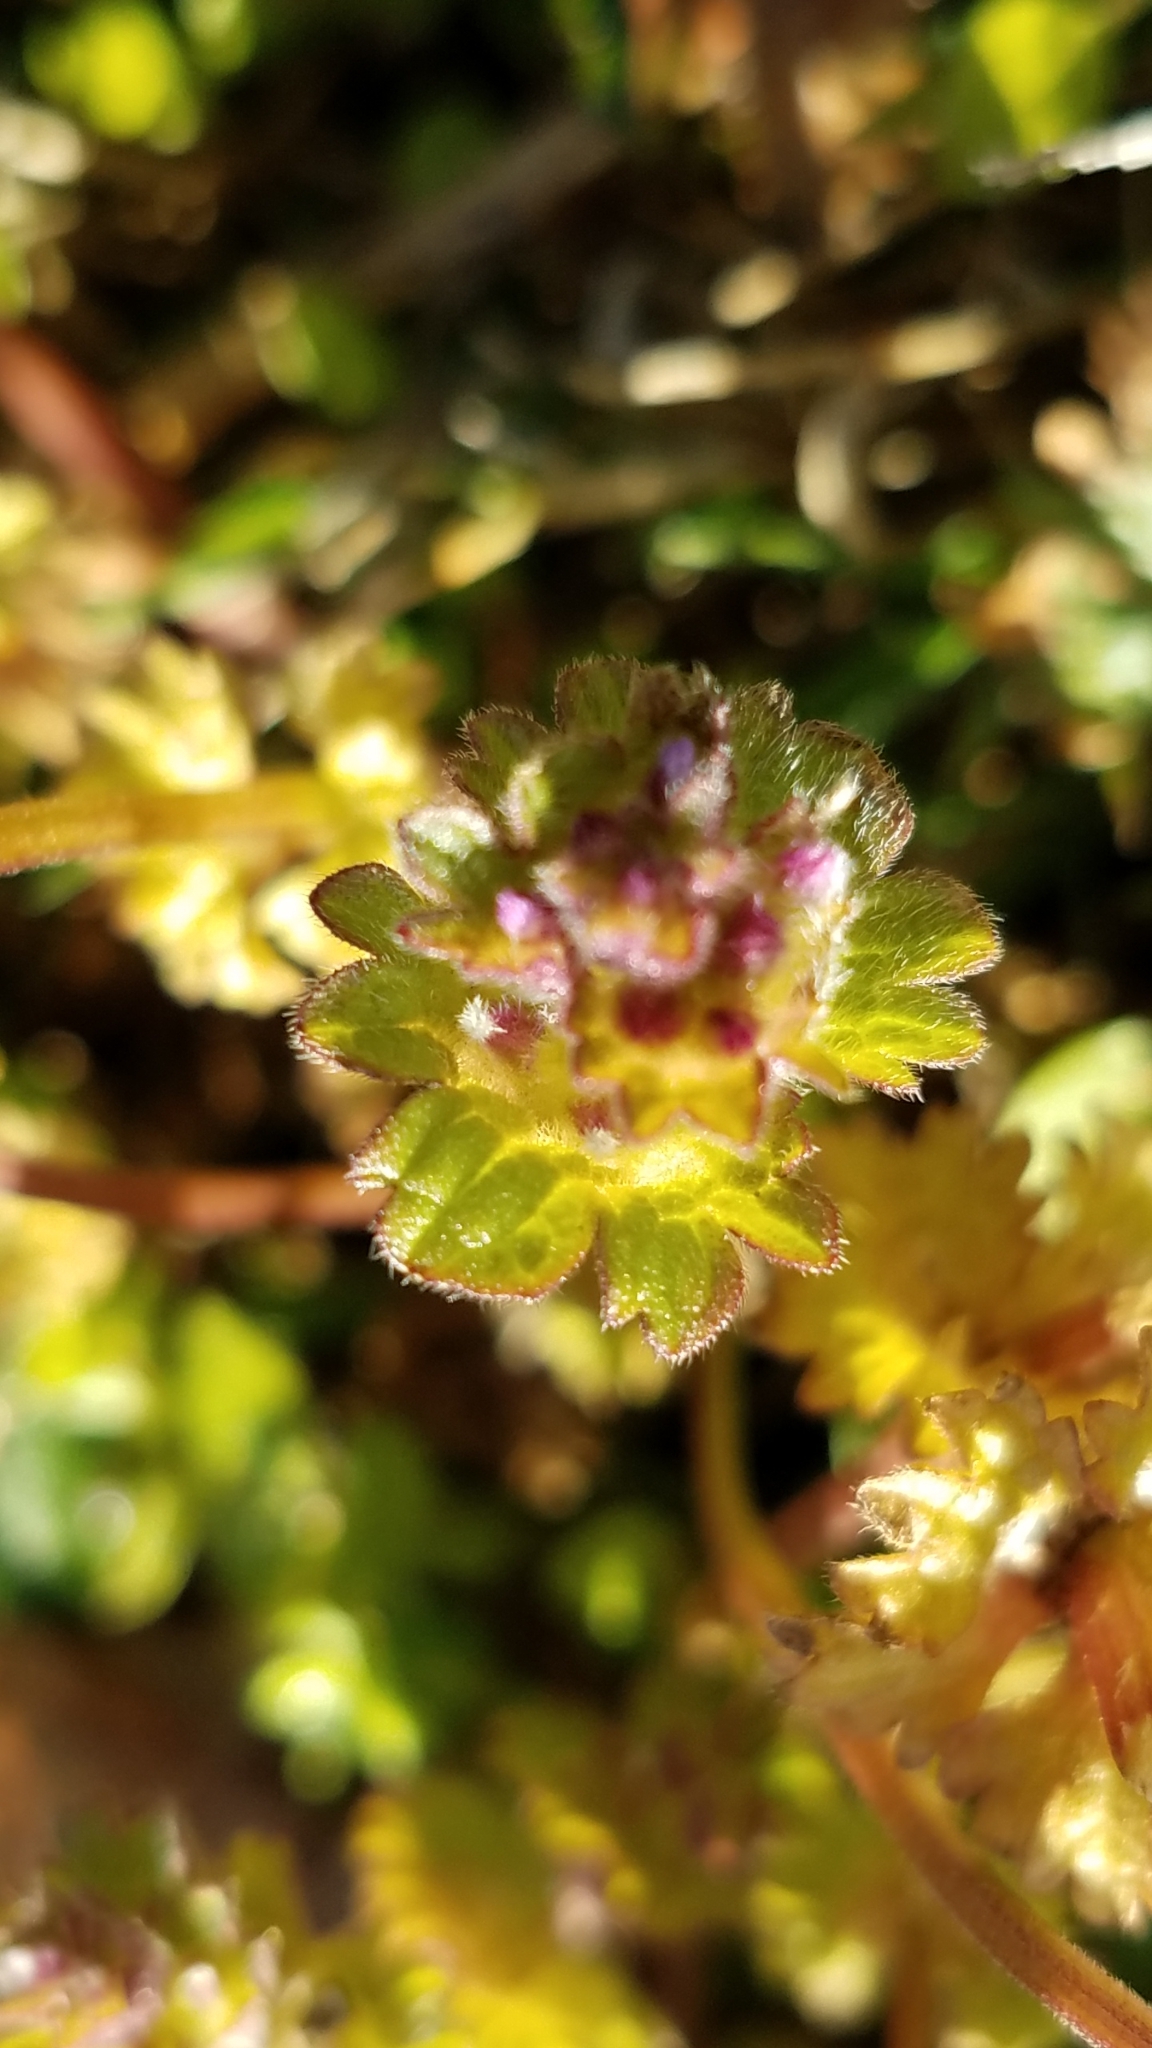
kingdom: Plantae
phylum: Tracheophyta
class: Magnoliopsida
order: Lamiales
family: Lamiaceae
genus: Lamium
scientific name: Lamium amplexicaule
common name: Henbit dead-nettle
